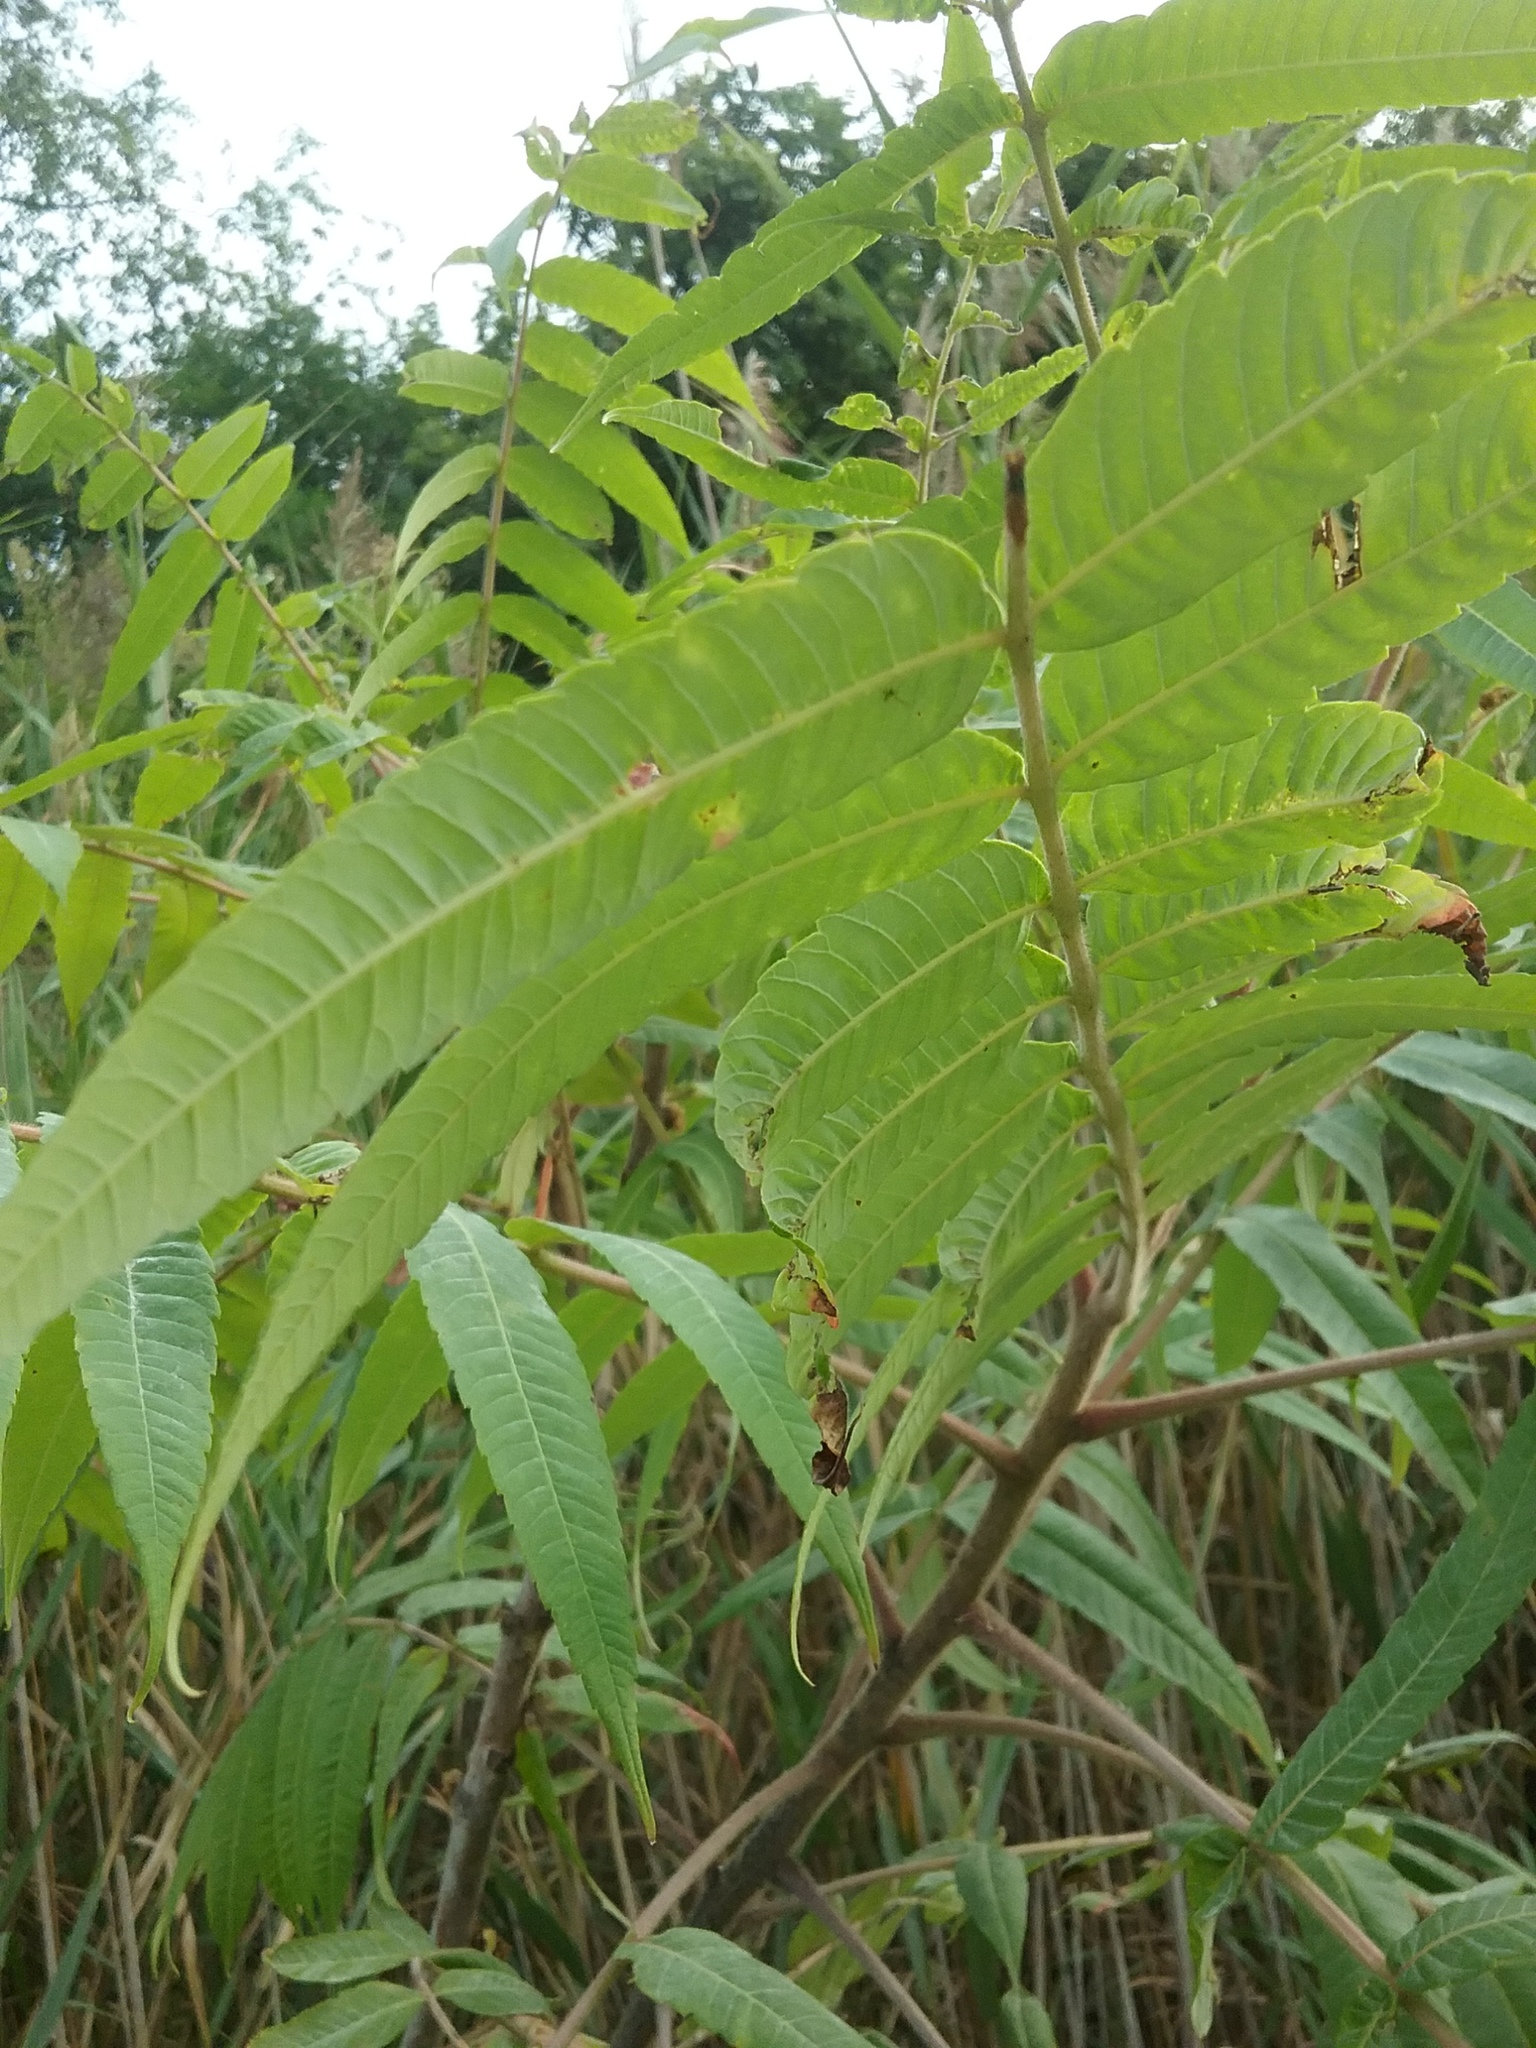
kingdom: Plantae
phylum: Tracheophyta
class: Magnoliopsida
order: Sapindales
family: Anacardiaceae
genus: Rhus
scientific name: Rhus typhina
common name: Staghorn sumac
